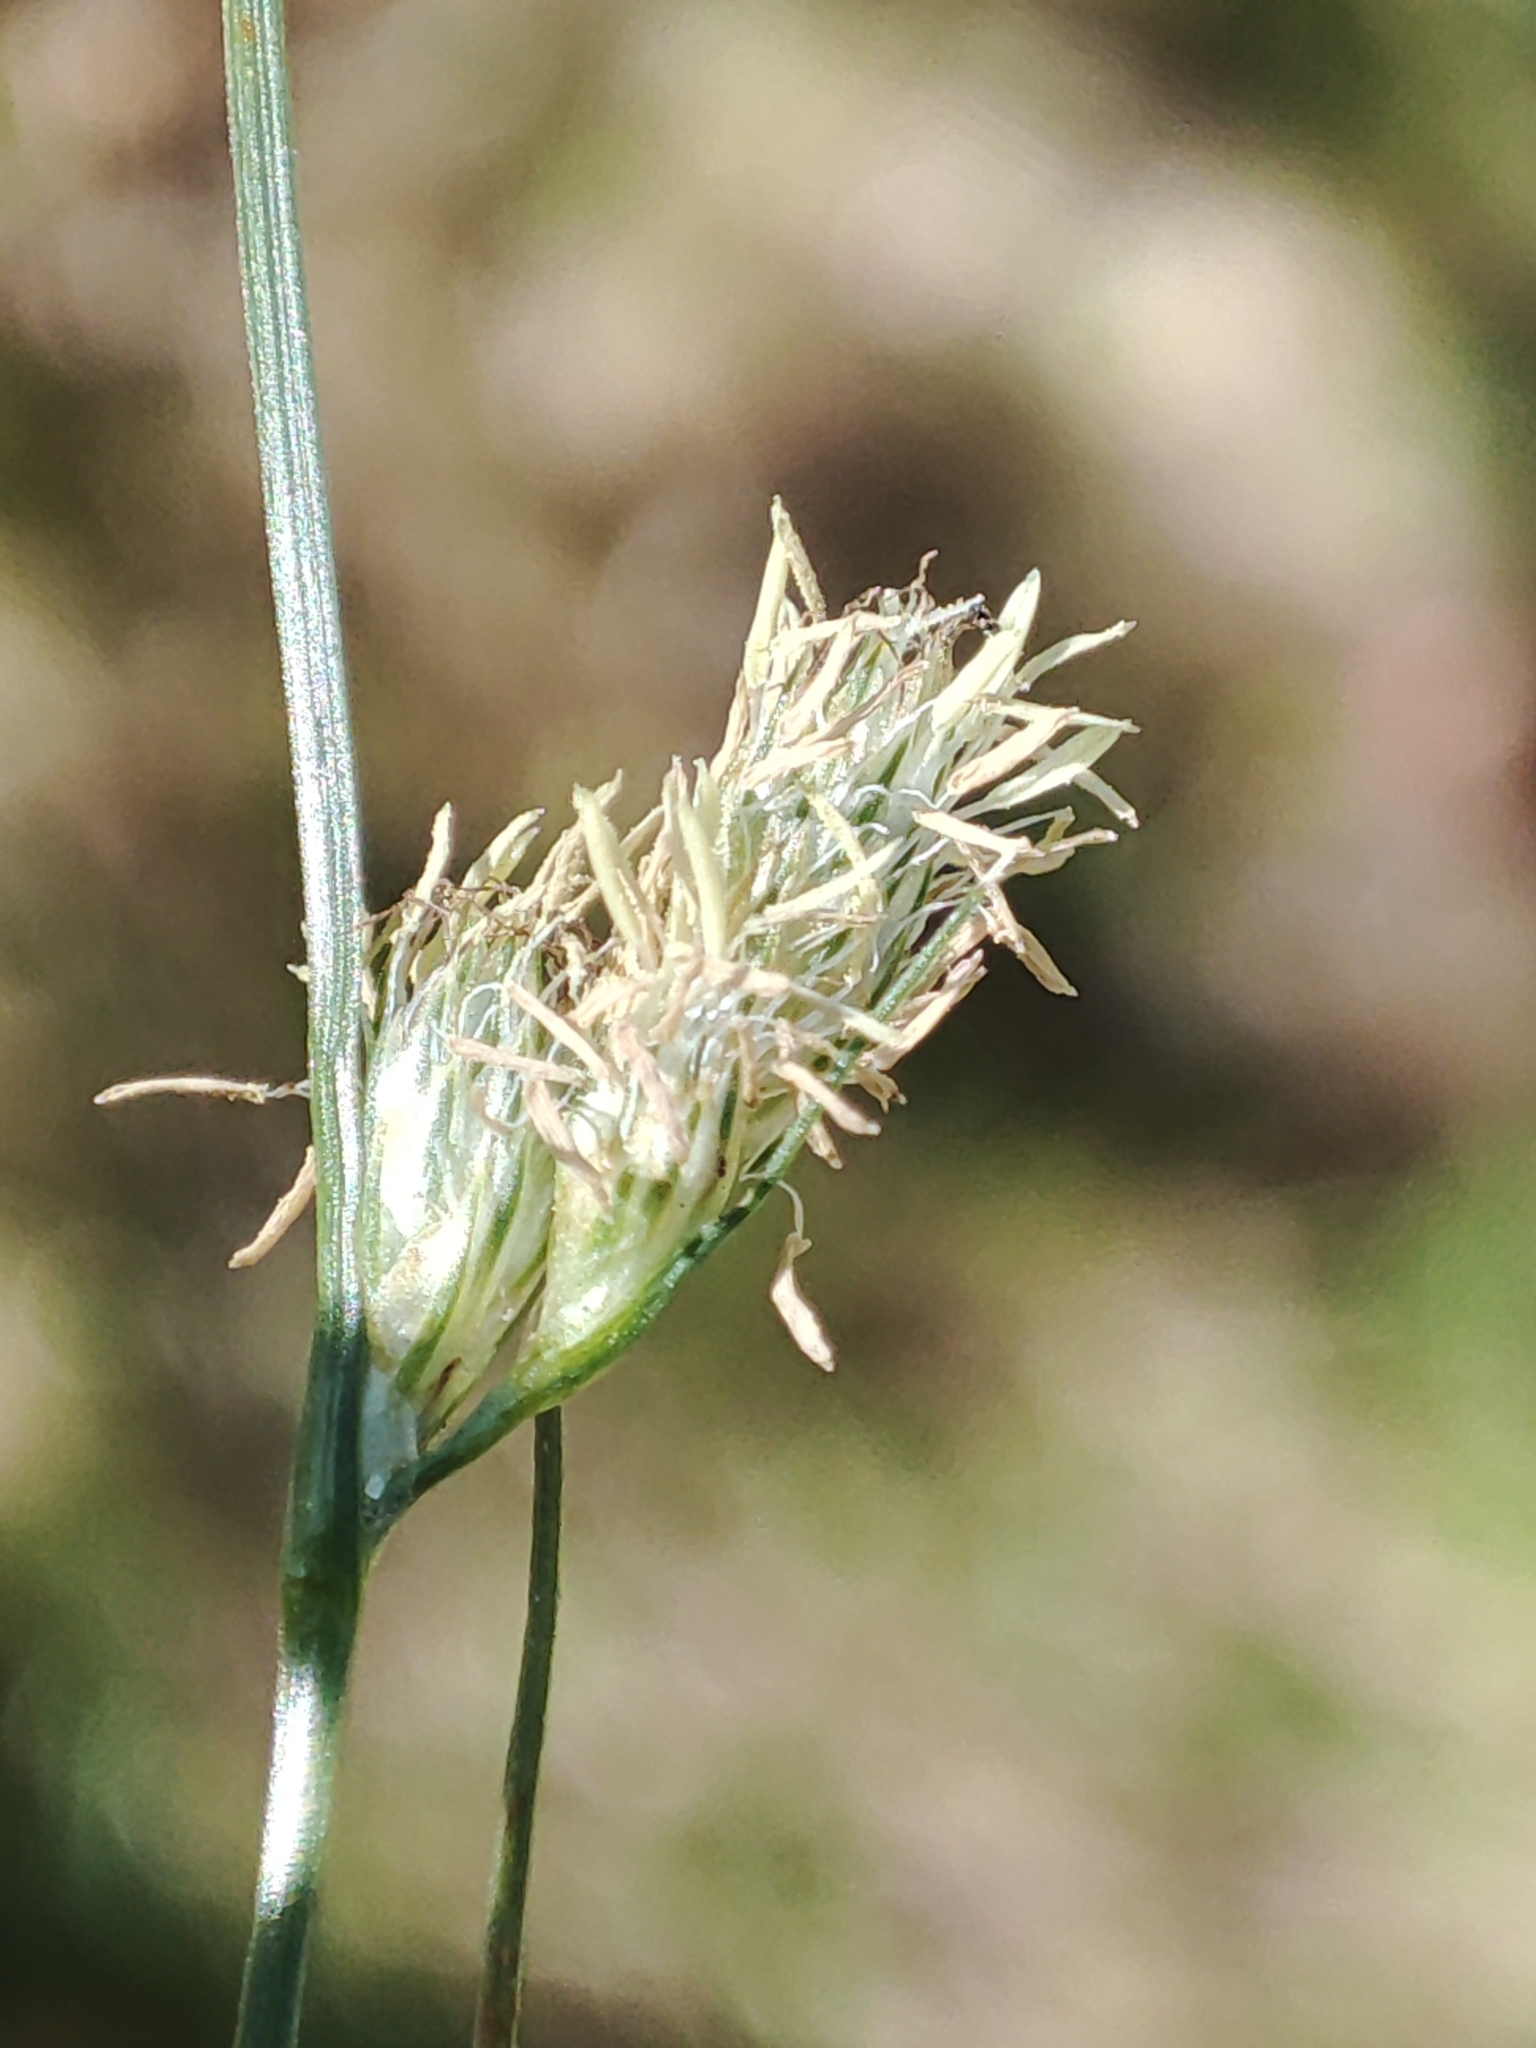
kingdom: Plantae
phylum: Tracheophyta
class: Liliopsida
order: Poales
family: Cyperaceae
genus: Carex
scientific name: Carex inversa
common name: Knob sedge
